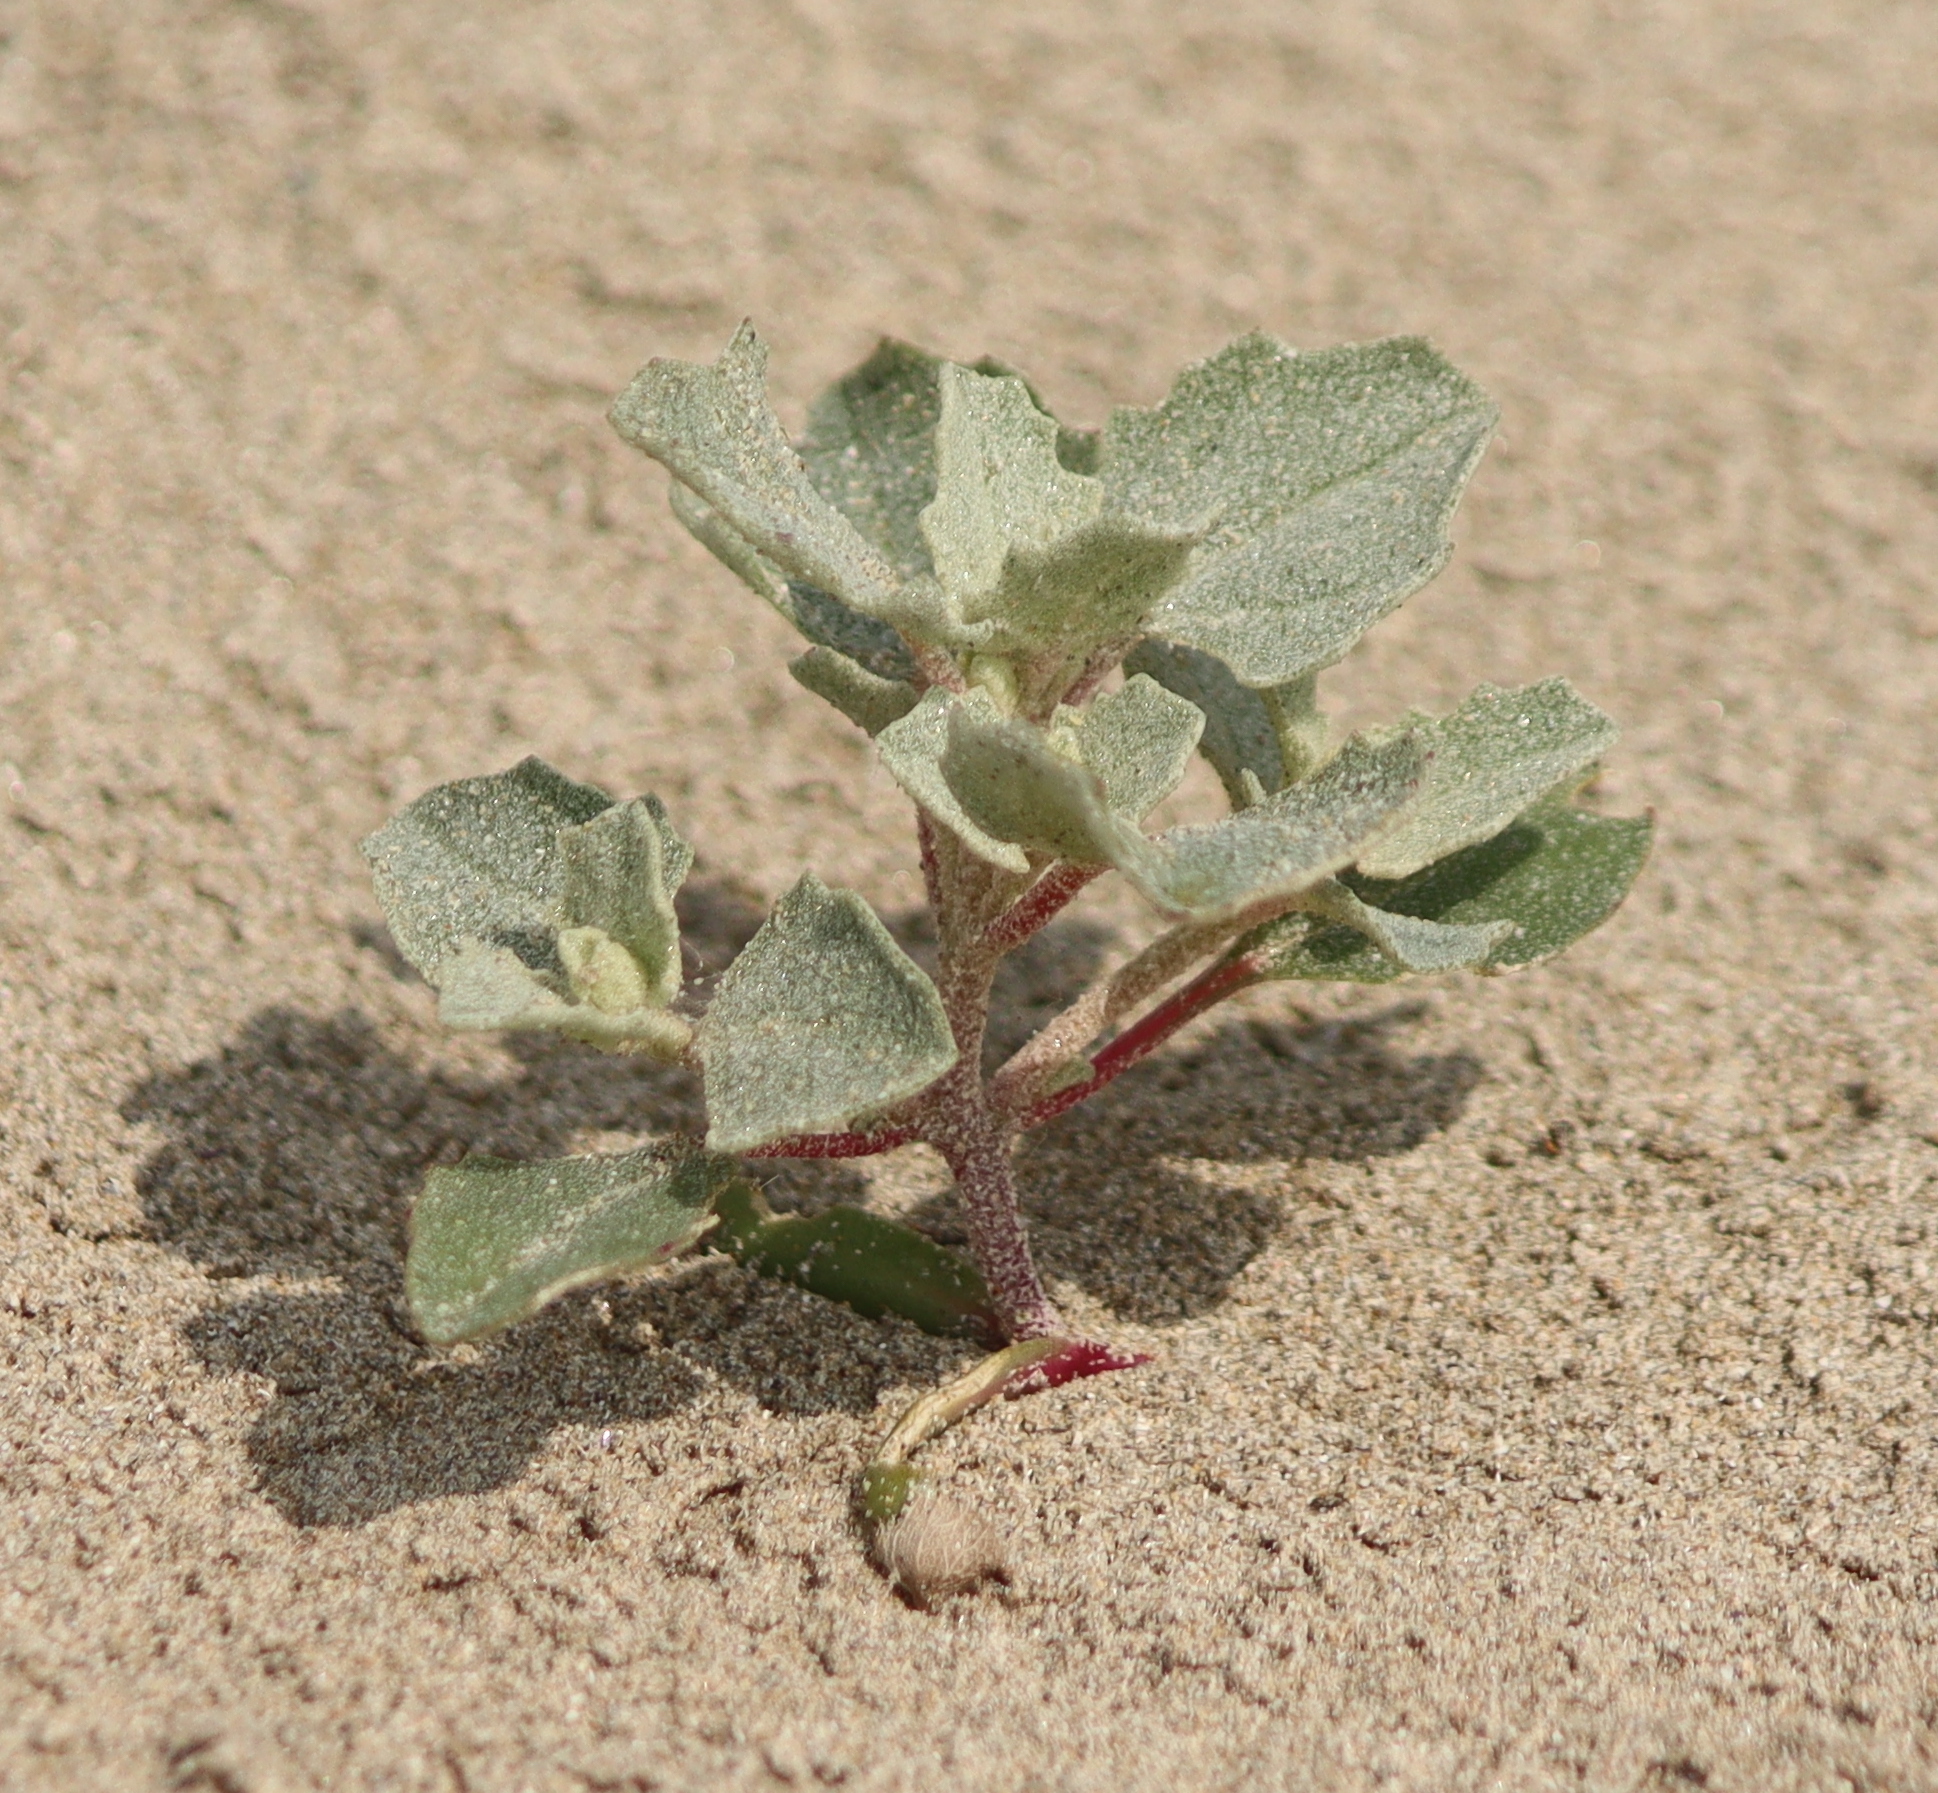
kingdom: Plantae
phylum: Tracheophyta
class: Magnoliopsida
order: Caryophyllales
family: Amaranthaceae
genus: Atriplex
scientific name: Atriplex laciniata
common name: Frosted orache
